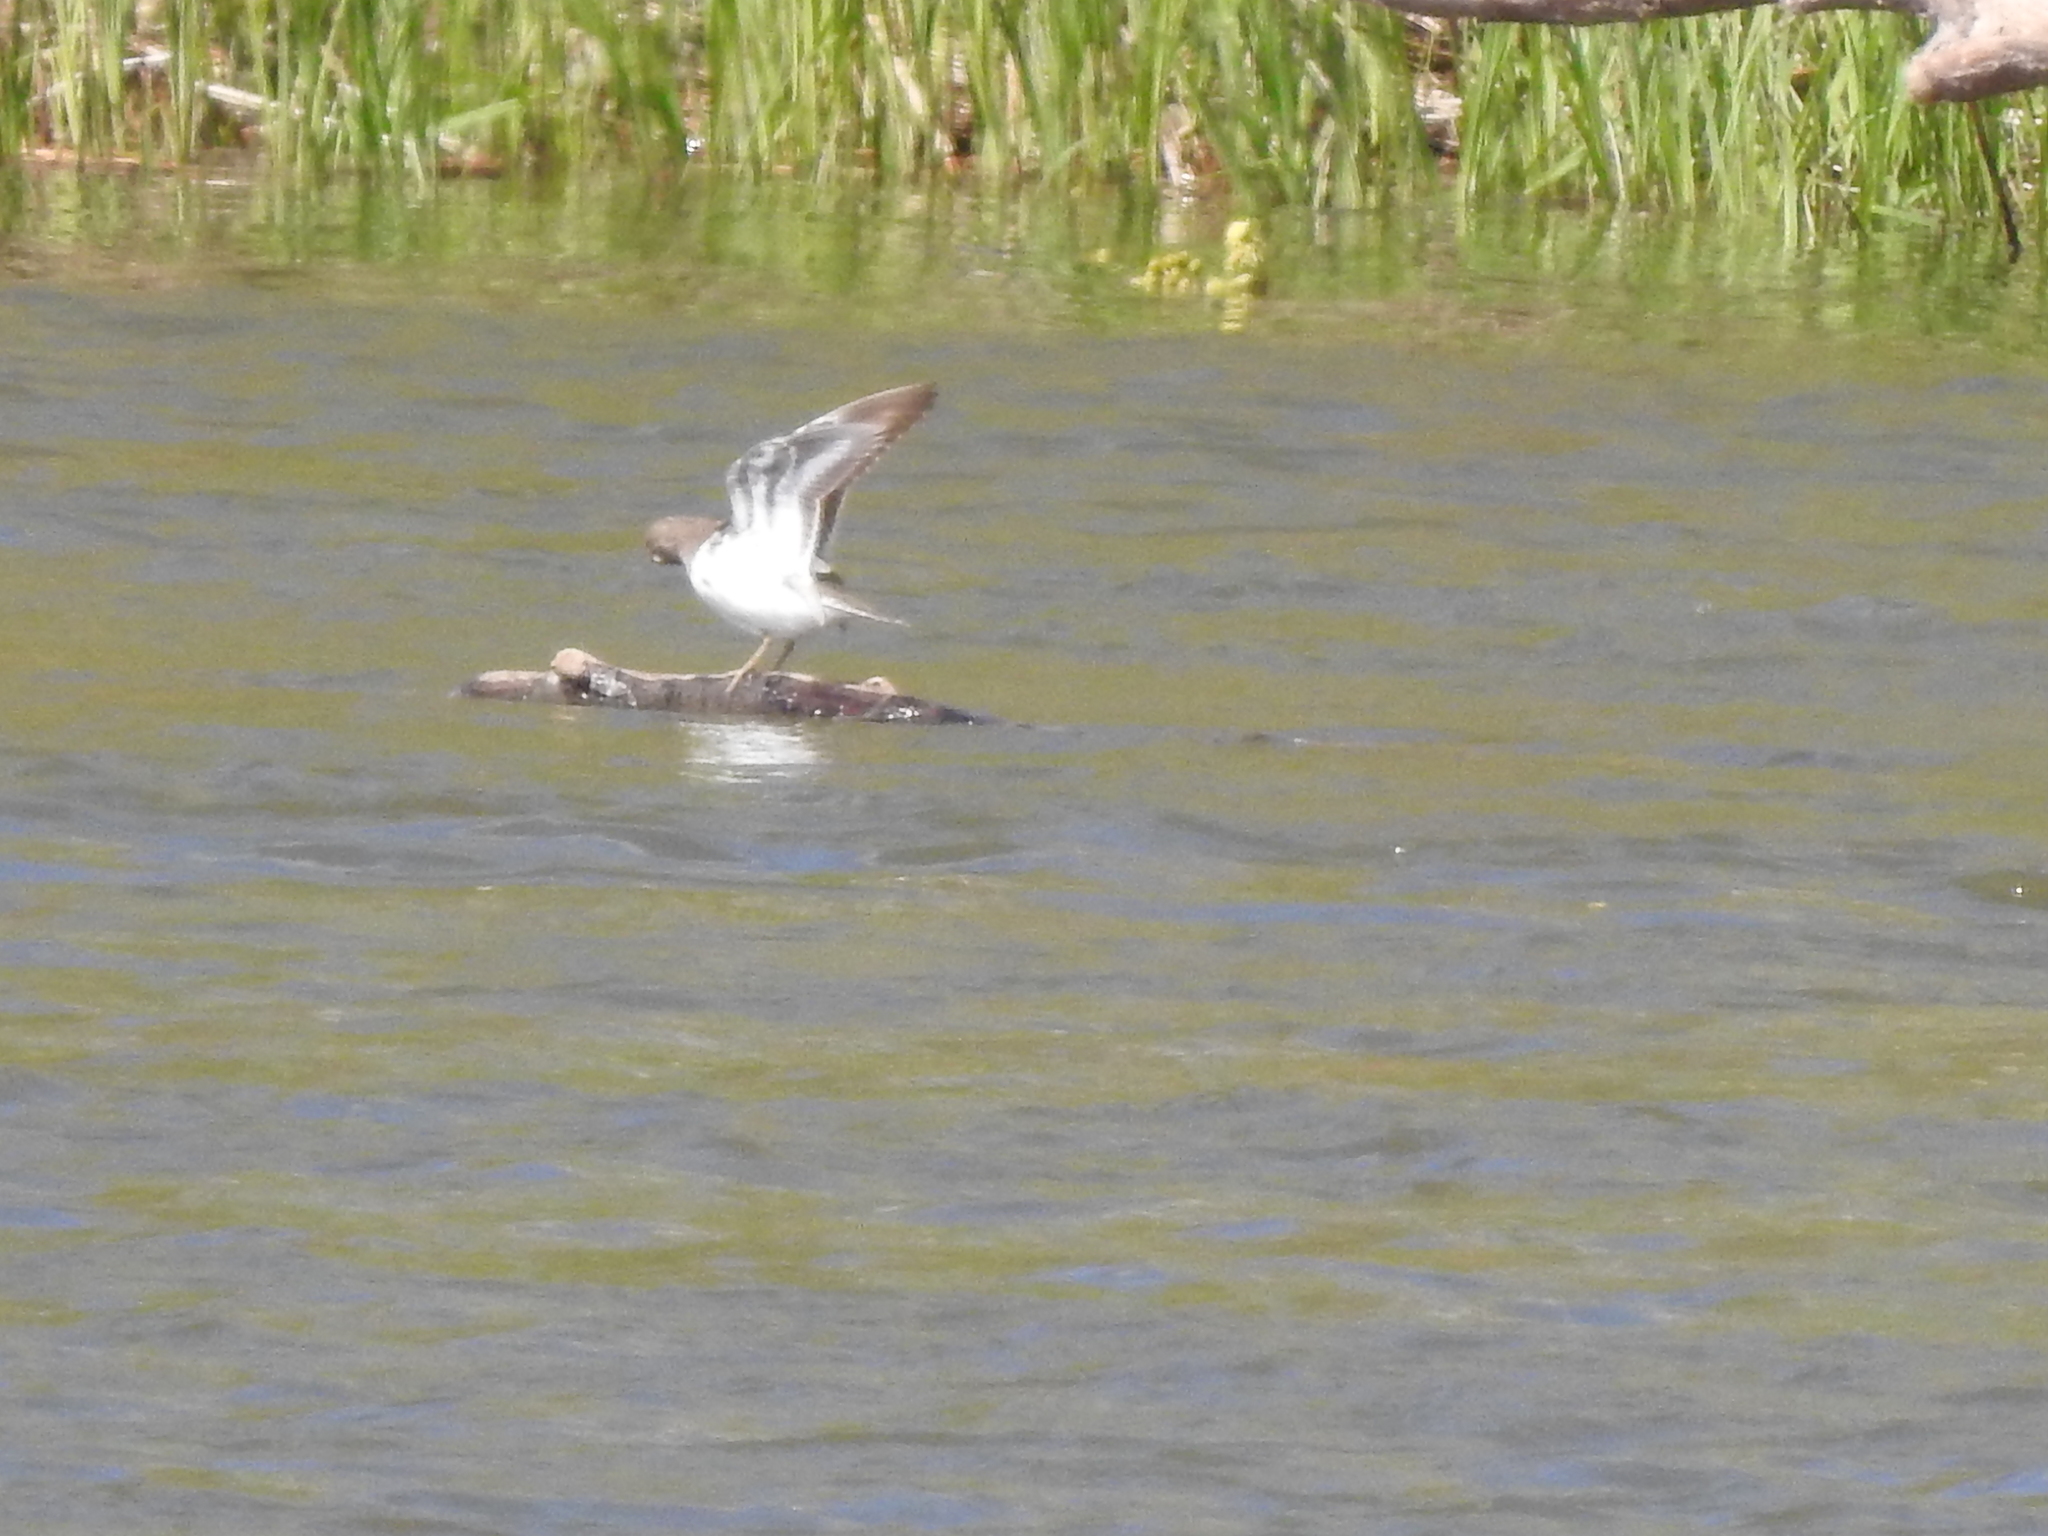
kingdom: Animalia
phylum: Chordata
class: Aves
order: Charadriiformes
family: Scolopacidae
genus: Actitis
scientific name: Actitis hypoleucos
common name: Common sandpiper
